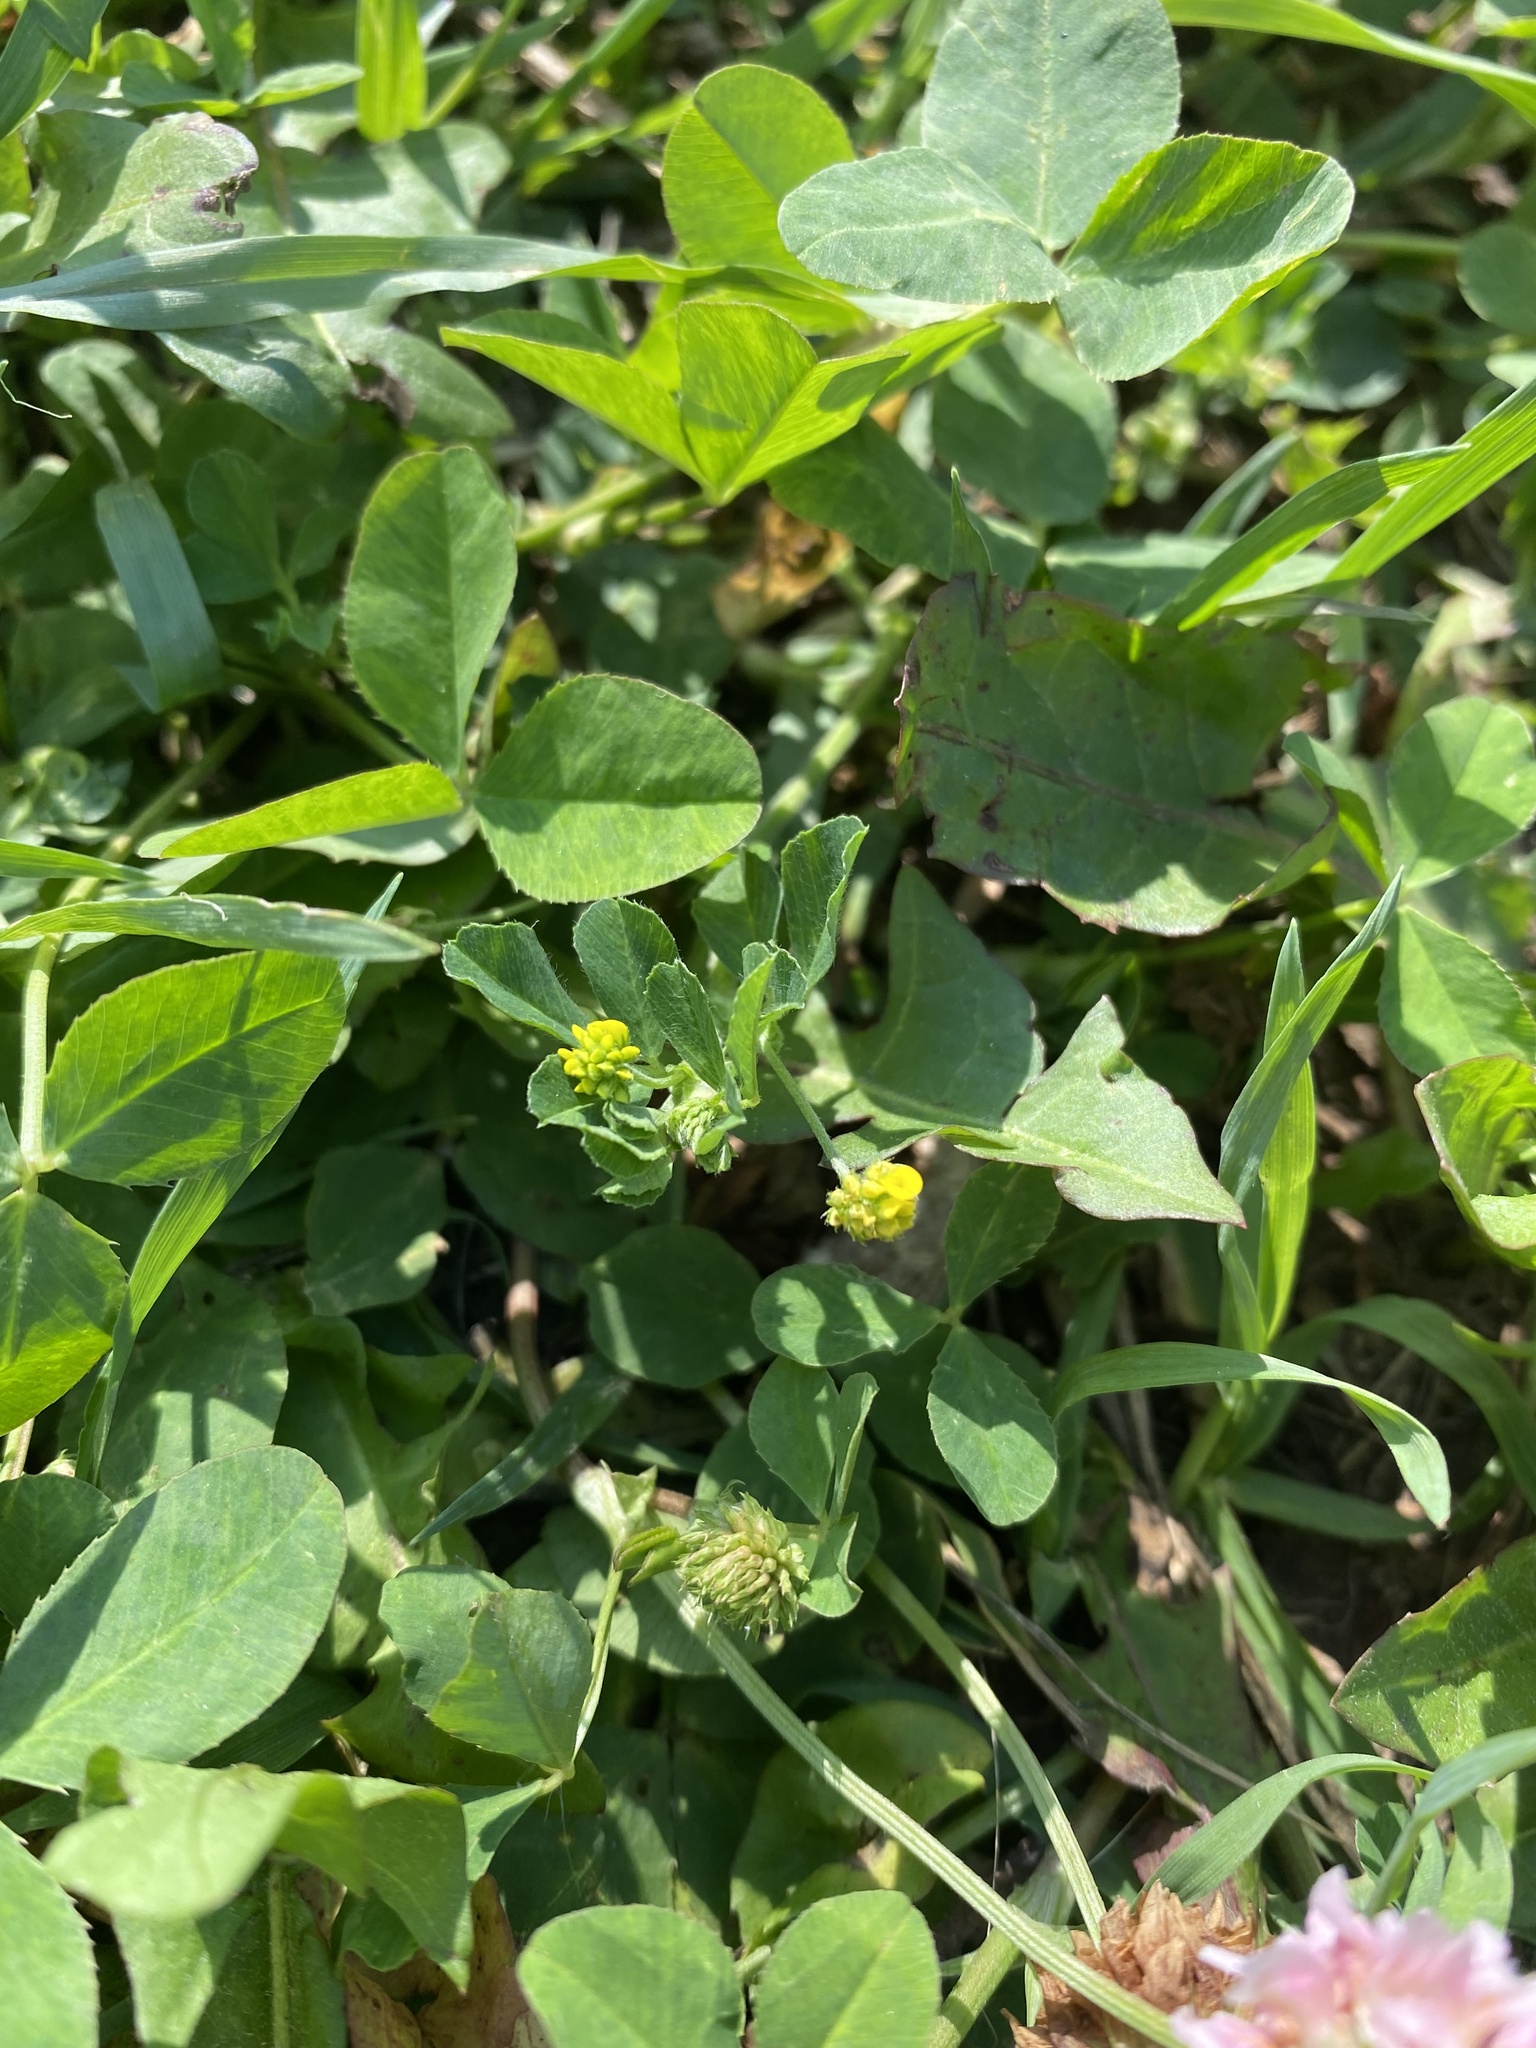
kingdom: Plantae
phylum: Tracheophyta
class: Magnoliopsida
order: Fabales
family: Fabaceae
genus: Medicago
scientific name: Medicago lupulina
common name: Black medick
